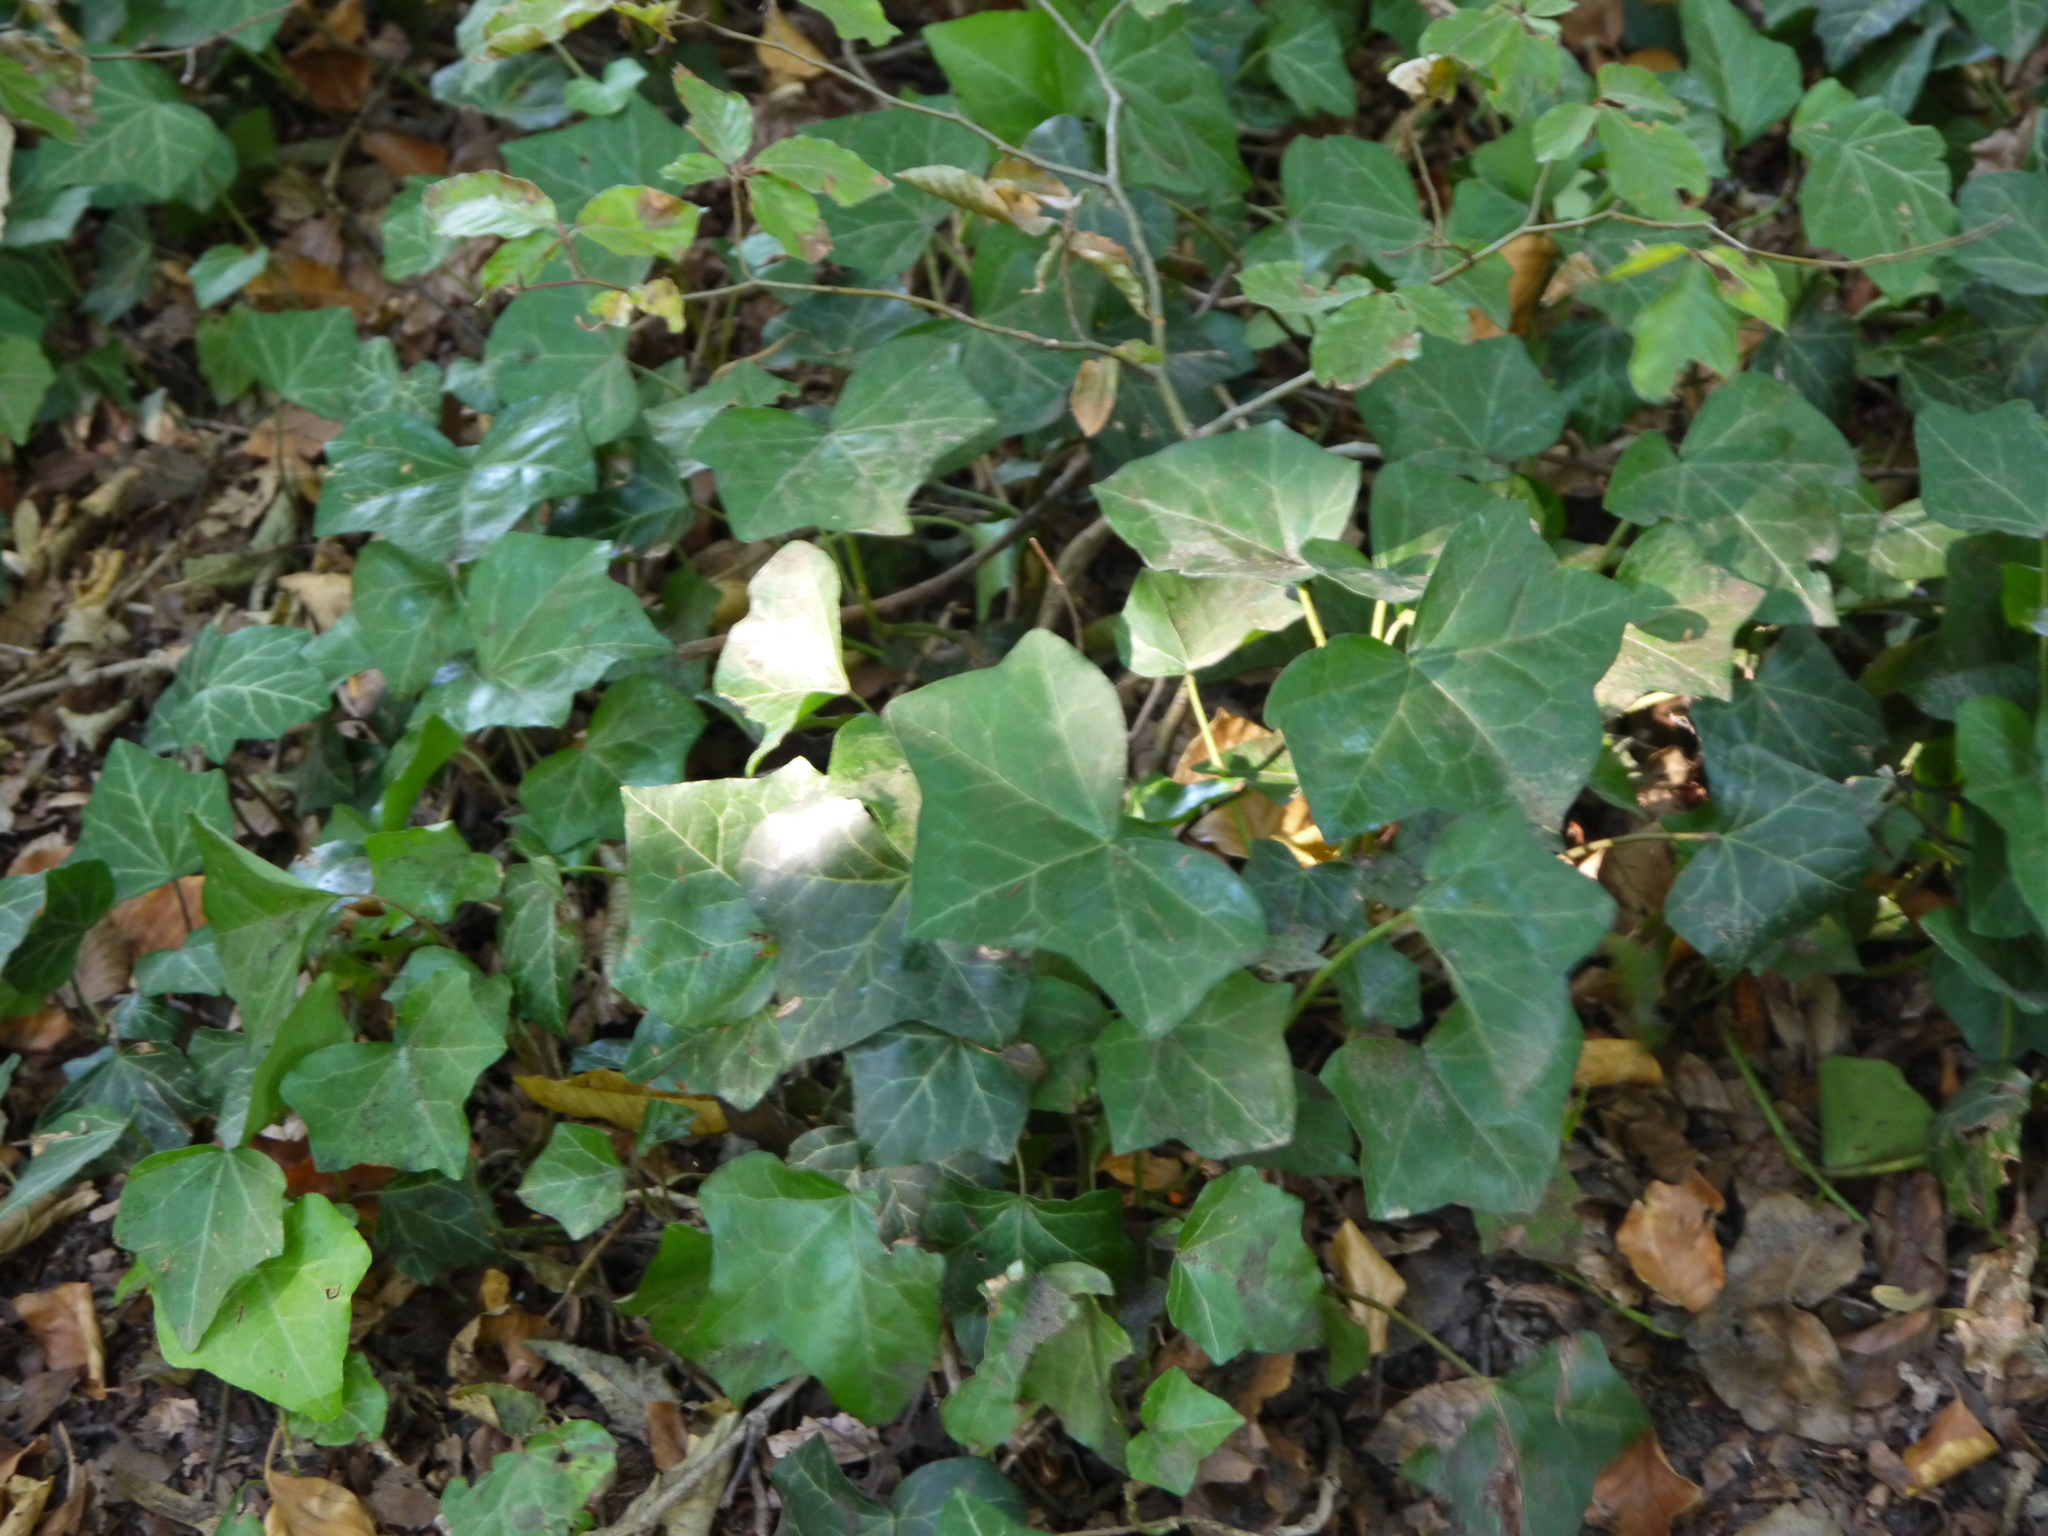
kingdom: Plantae
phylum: Tracheophyta
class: Magnoliopsida
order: Apiales
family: Araliaceae
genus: Hedera
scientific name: Hedera helix
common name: Ivy
